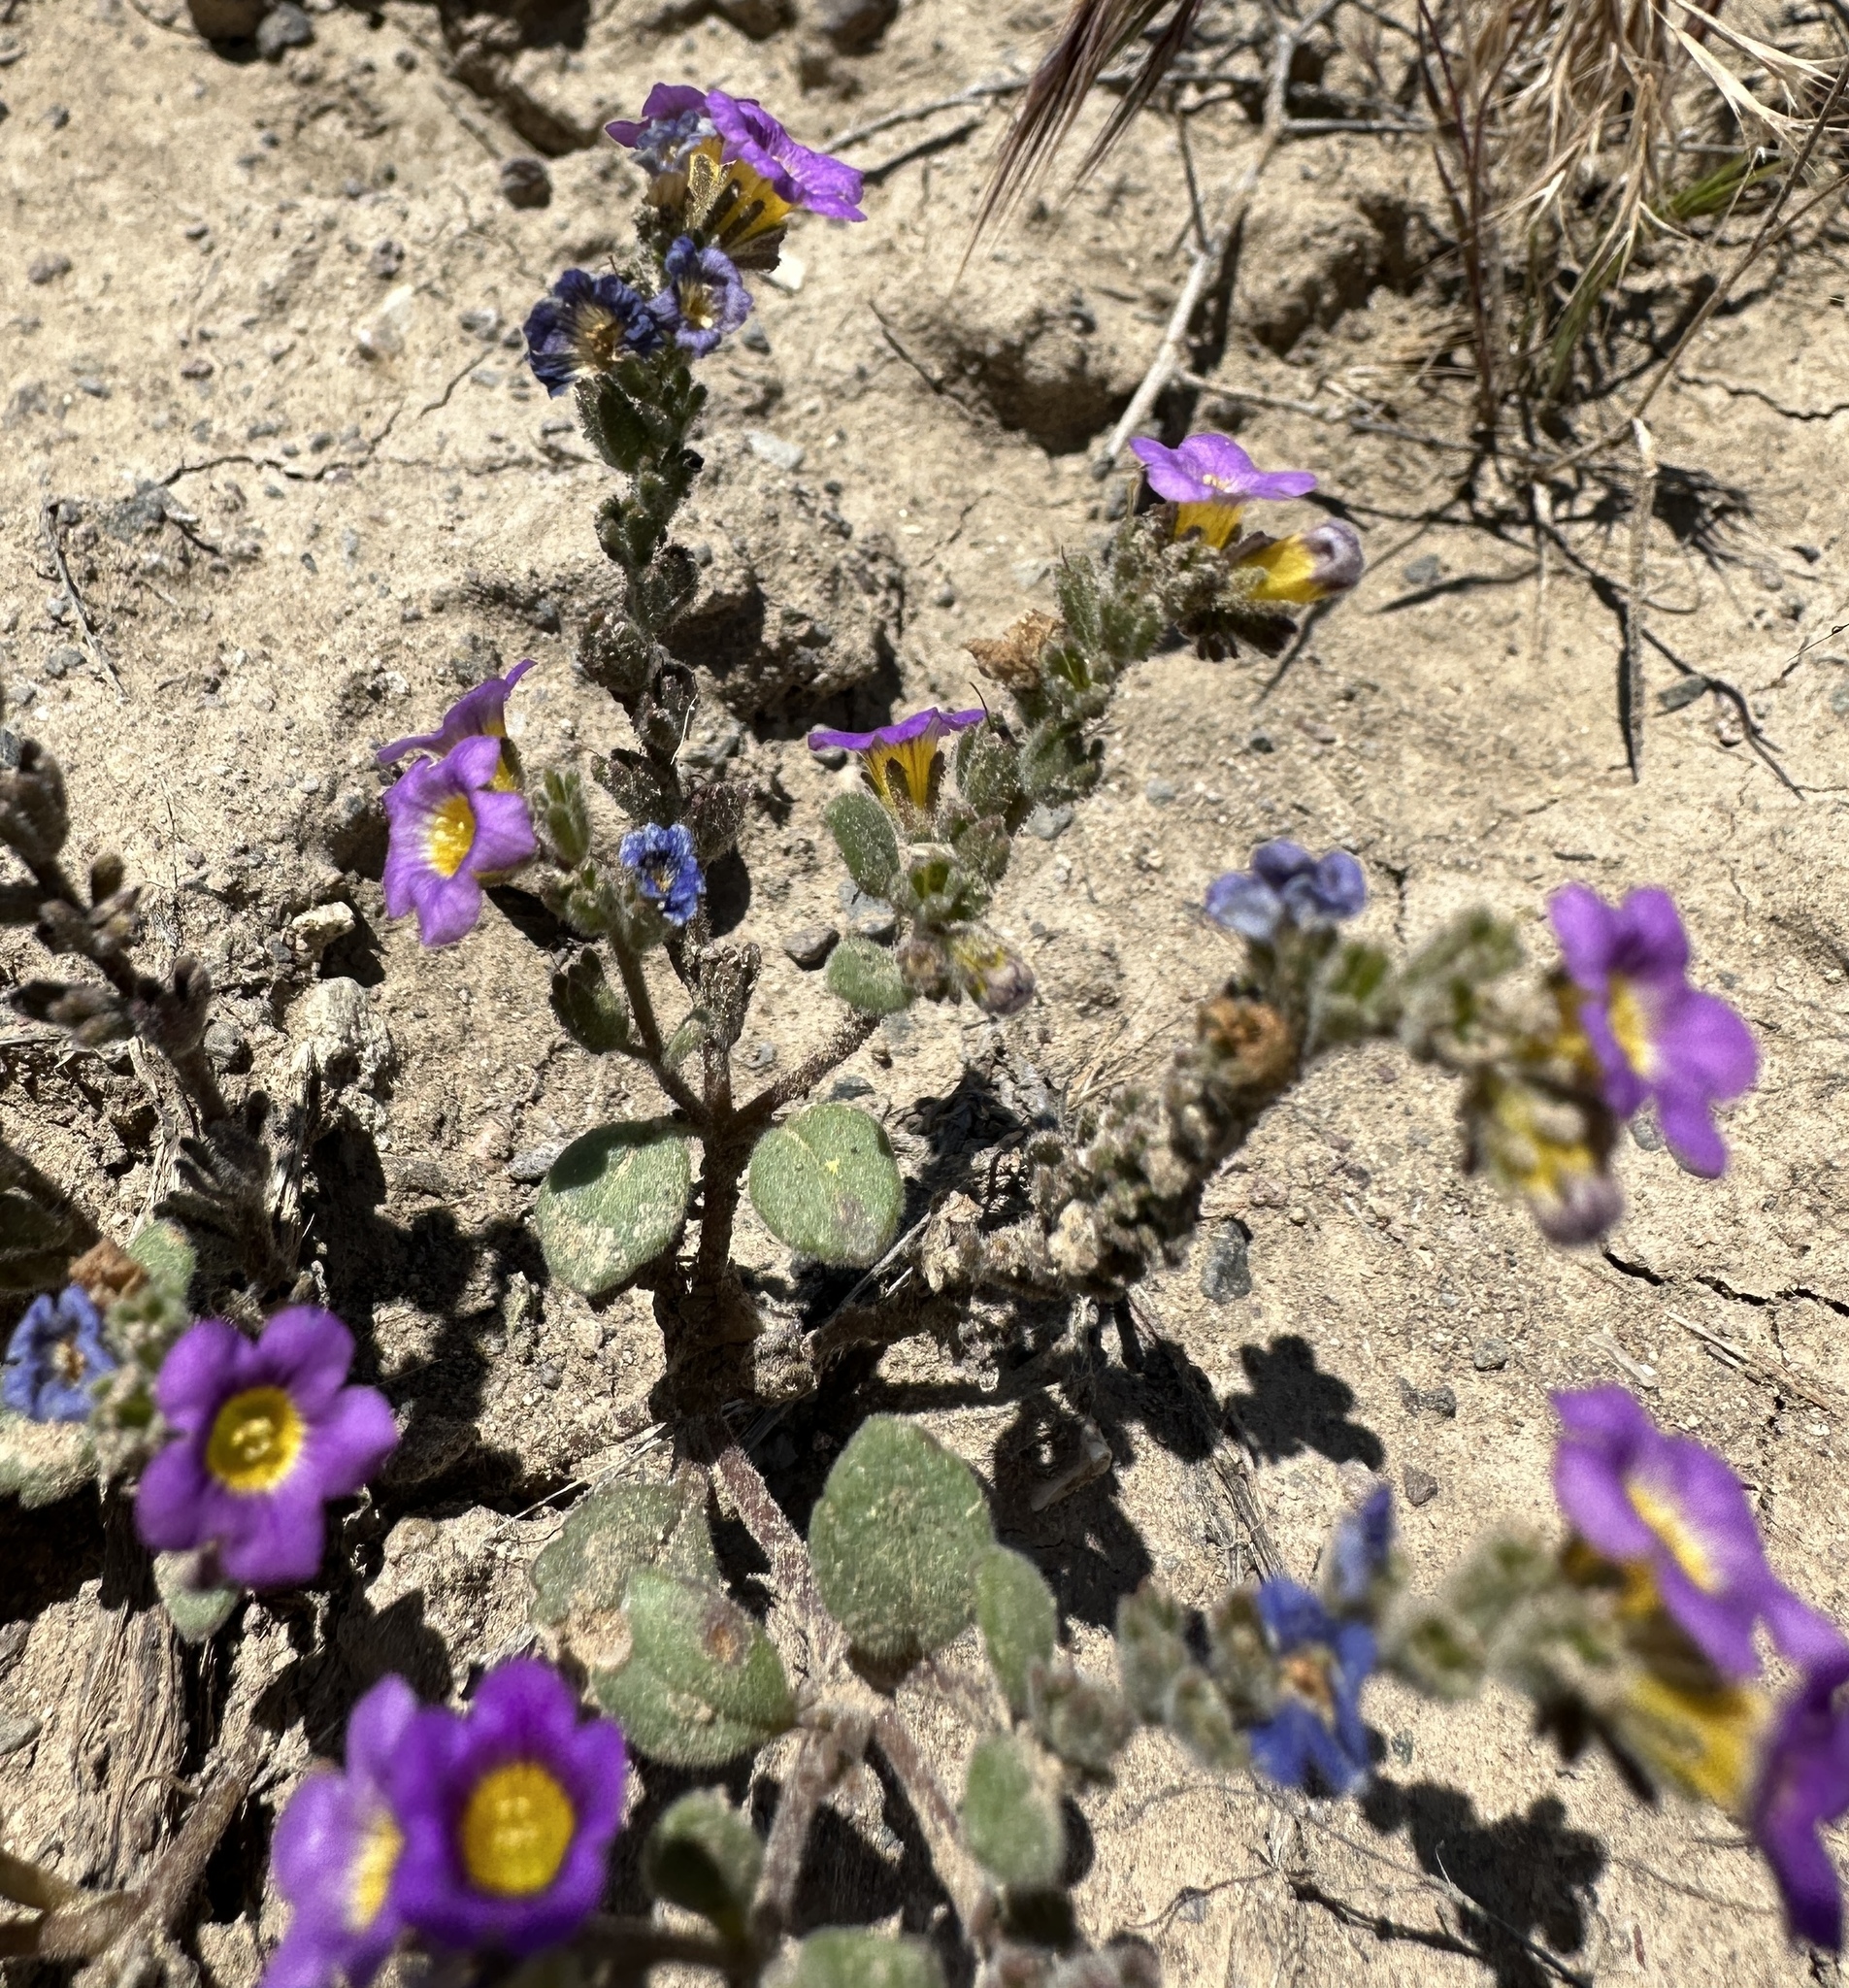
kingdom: Plantae
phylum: Tracheophyta
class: Magnoliopsida
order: Boraginales
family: Hydrophyllaceae
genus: Phacelia
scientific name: Phacelia gymnoclada
